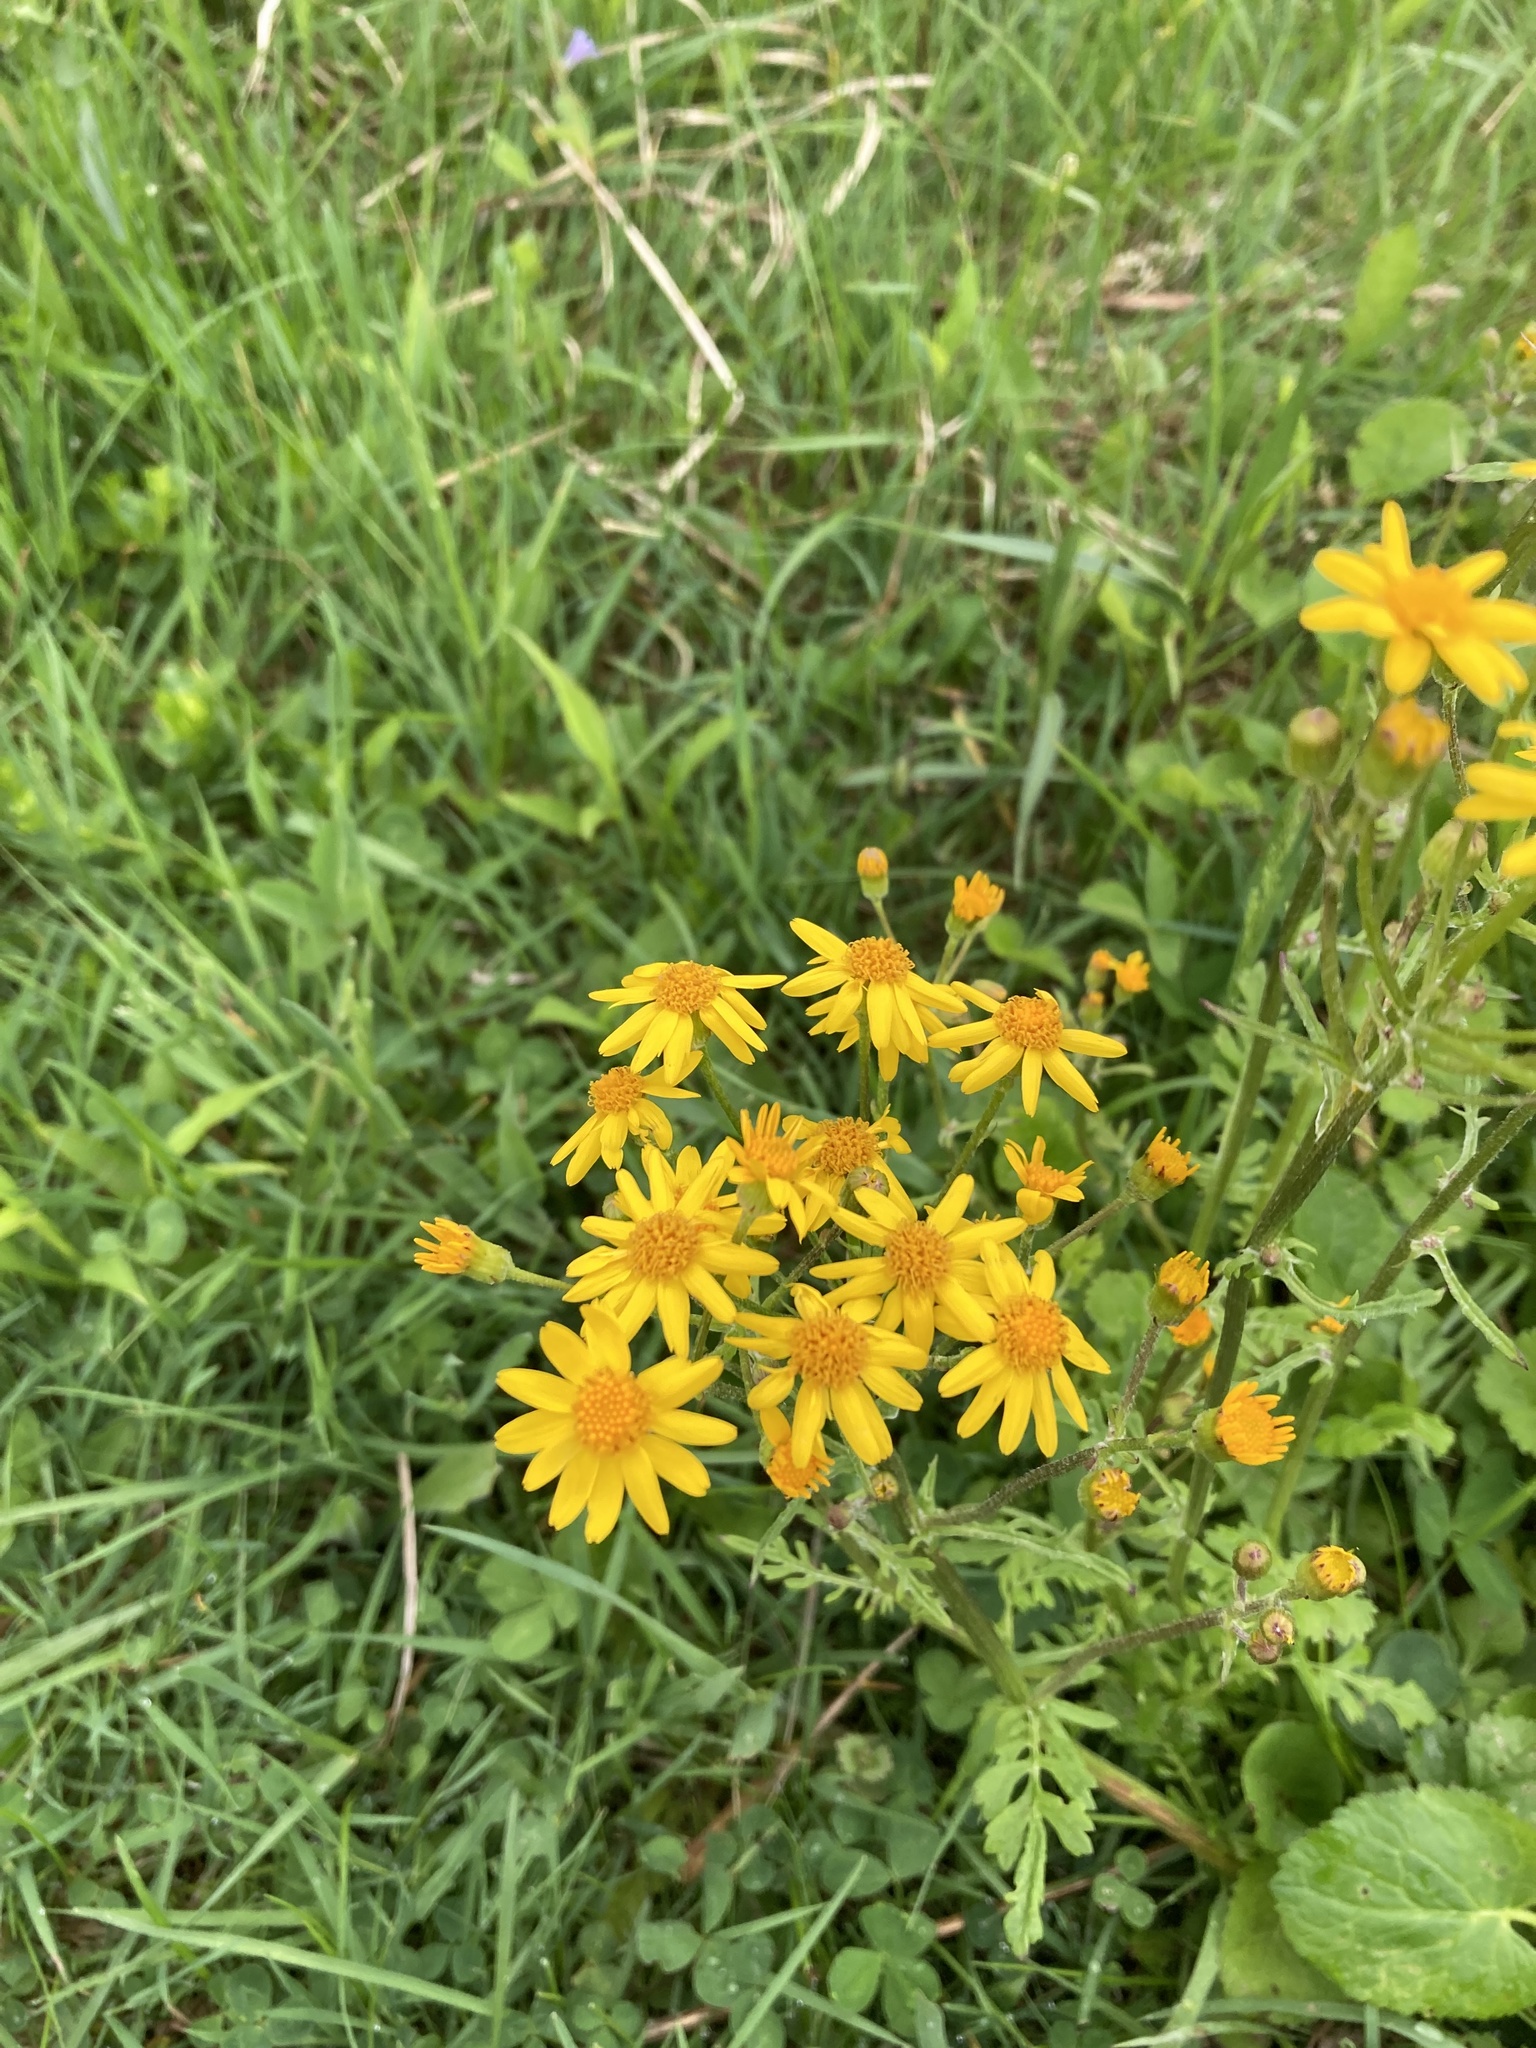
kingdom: Plantae
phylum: Tracheophyta
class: Magnoliopsida
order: Asterales
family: Asteraceae
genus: Packera
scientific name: Packera aurea
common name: Golden groundsel
